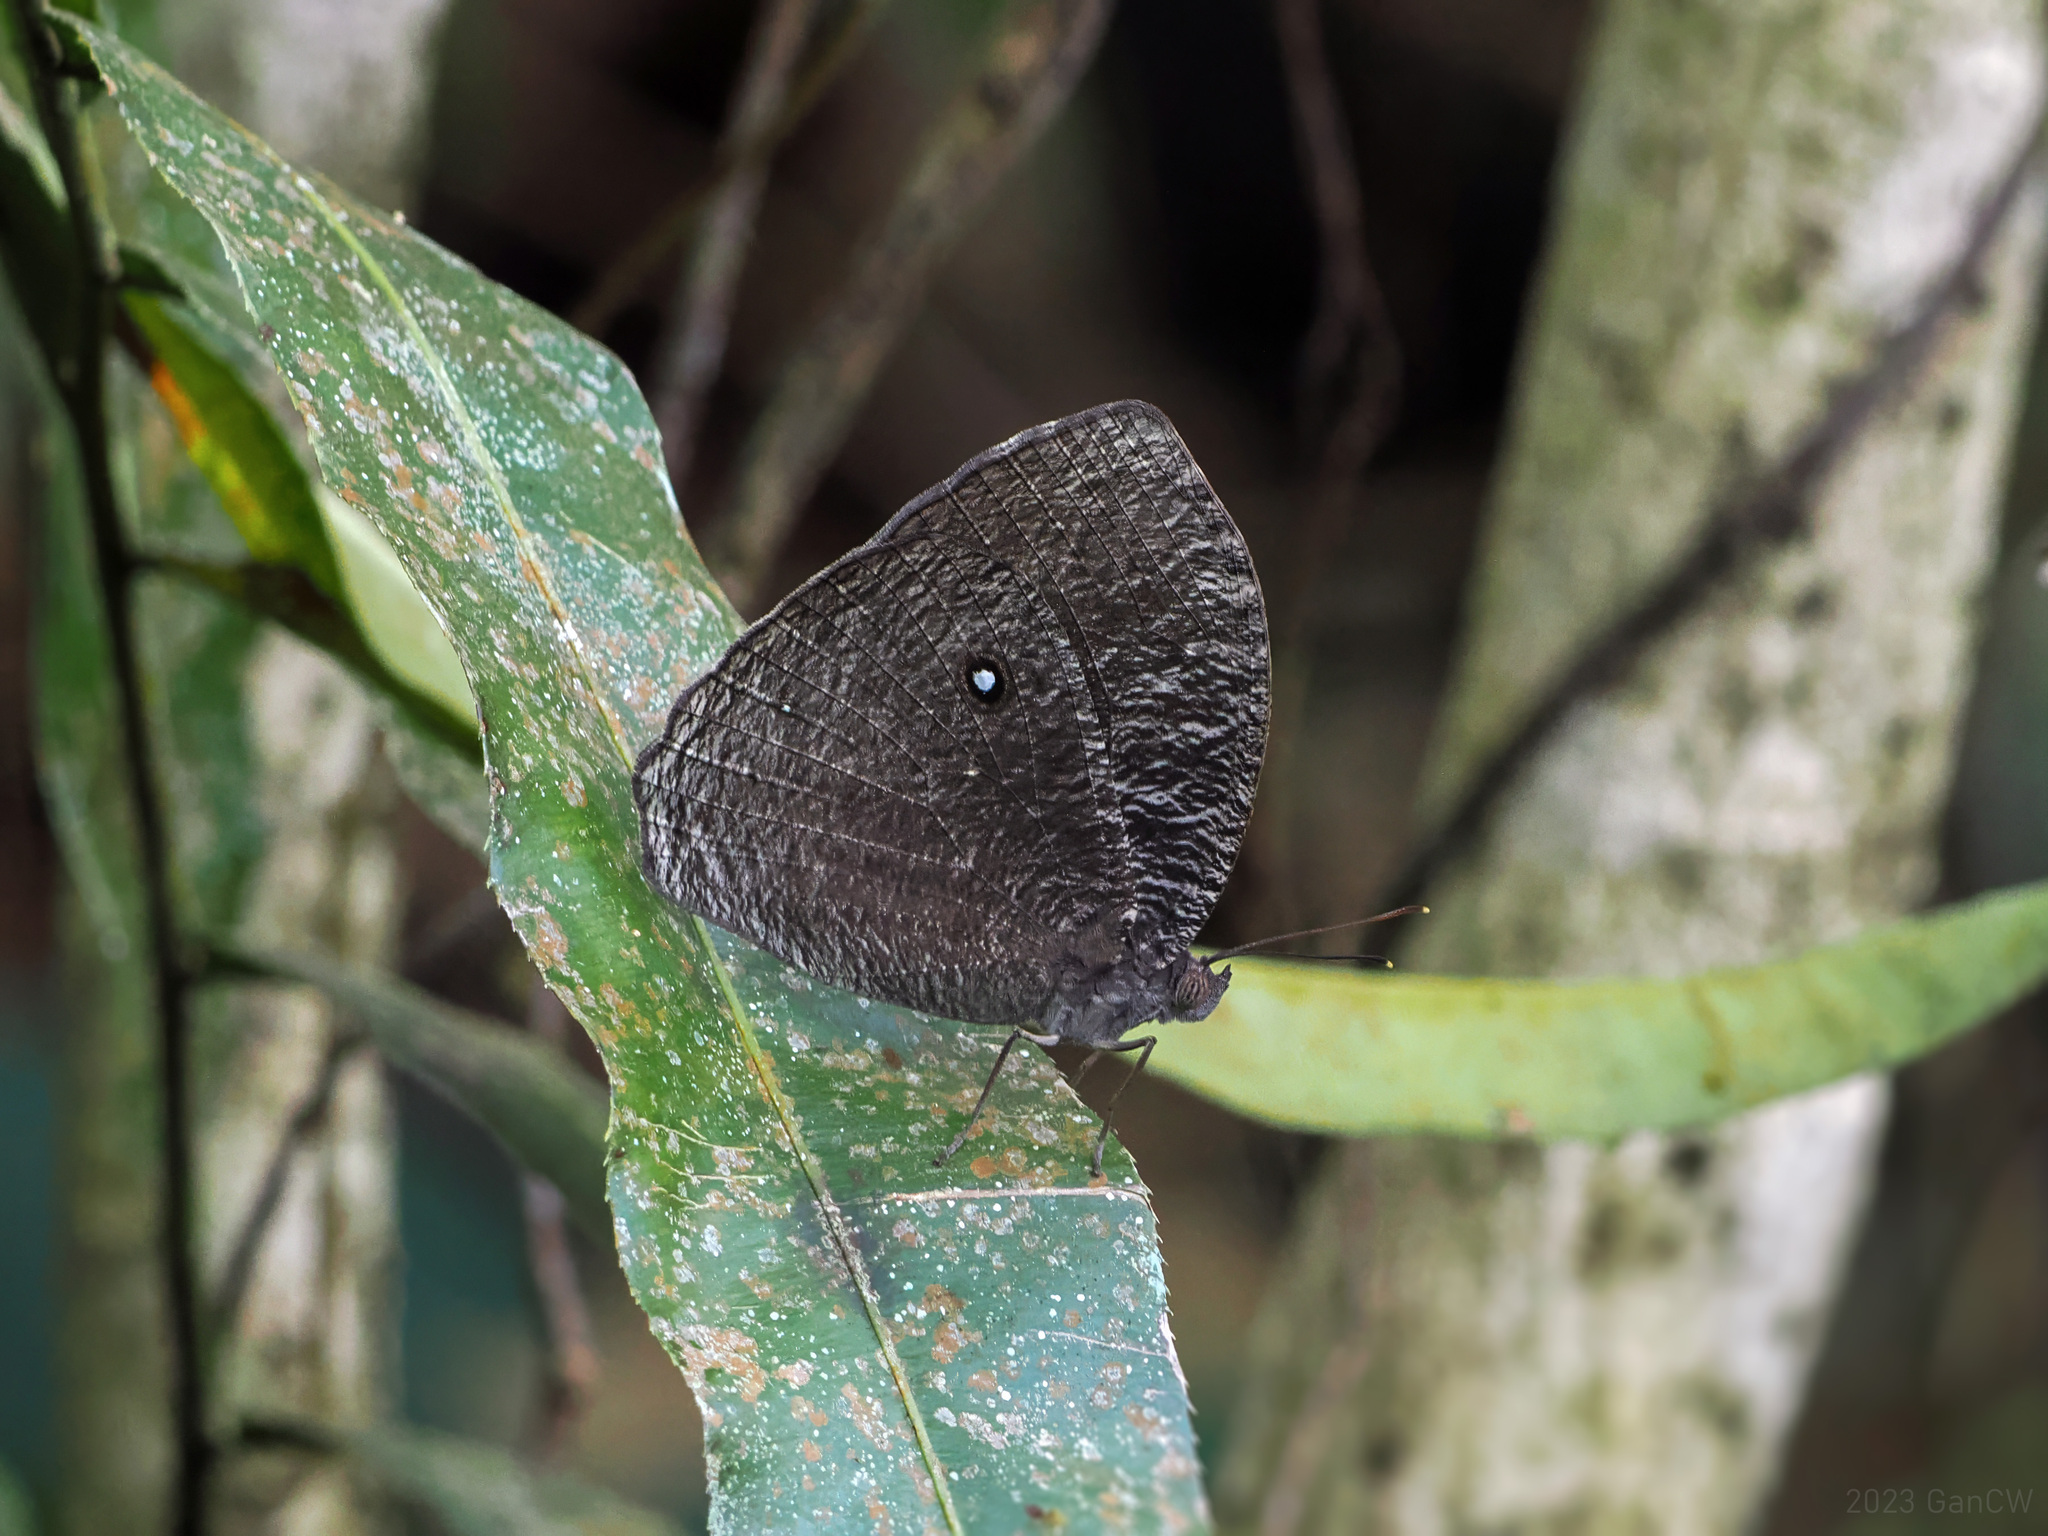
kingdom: Animalia
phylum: Arthropoda
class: Insecta
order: Lepidoptera
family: Nymphalidae
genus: Bletogona
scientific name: Bletogona mycalesis
